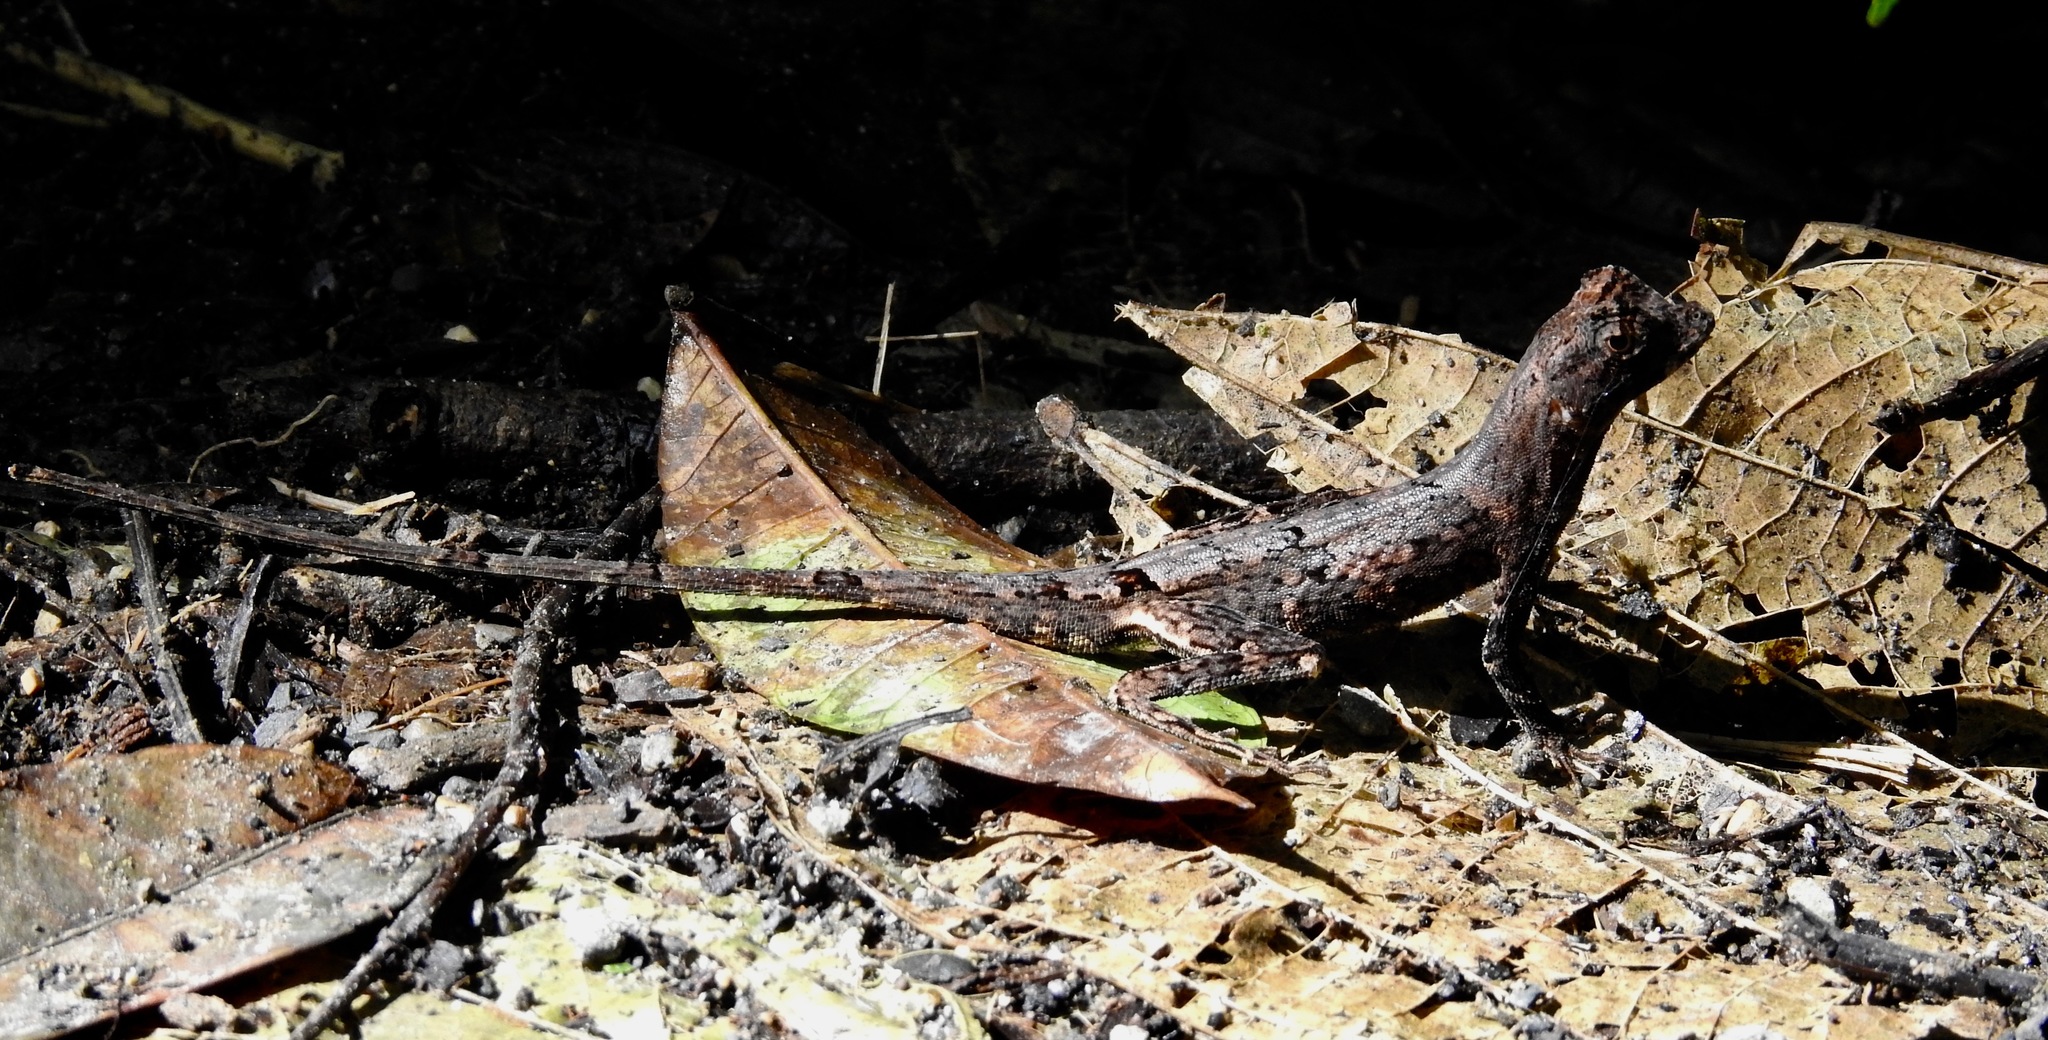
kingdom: Animalia
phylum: Chordata
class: Squamata
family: Dactyloidae
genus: Anolis
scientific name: Anolis capito
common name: Bighead anole
